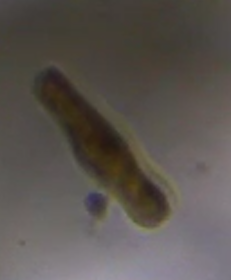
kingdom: Chromista
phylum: Ochrophyta
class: Bacillariophyceae
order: Rhopalodiales
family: Rhopalodiaceae
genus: Epithemia
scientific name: Epithemia gibba
